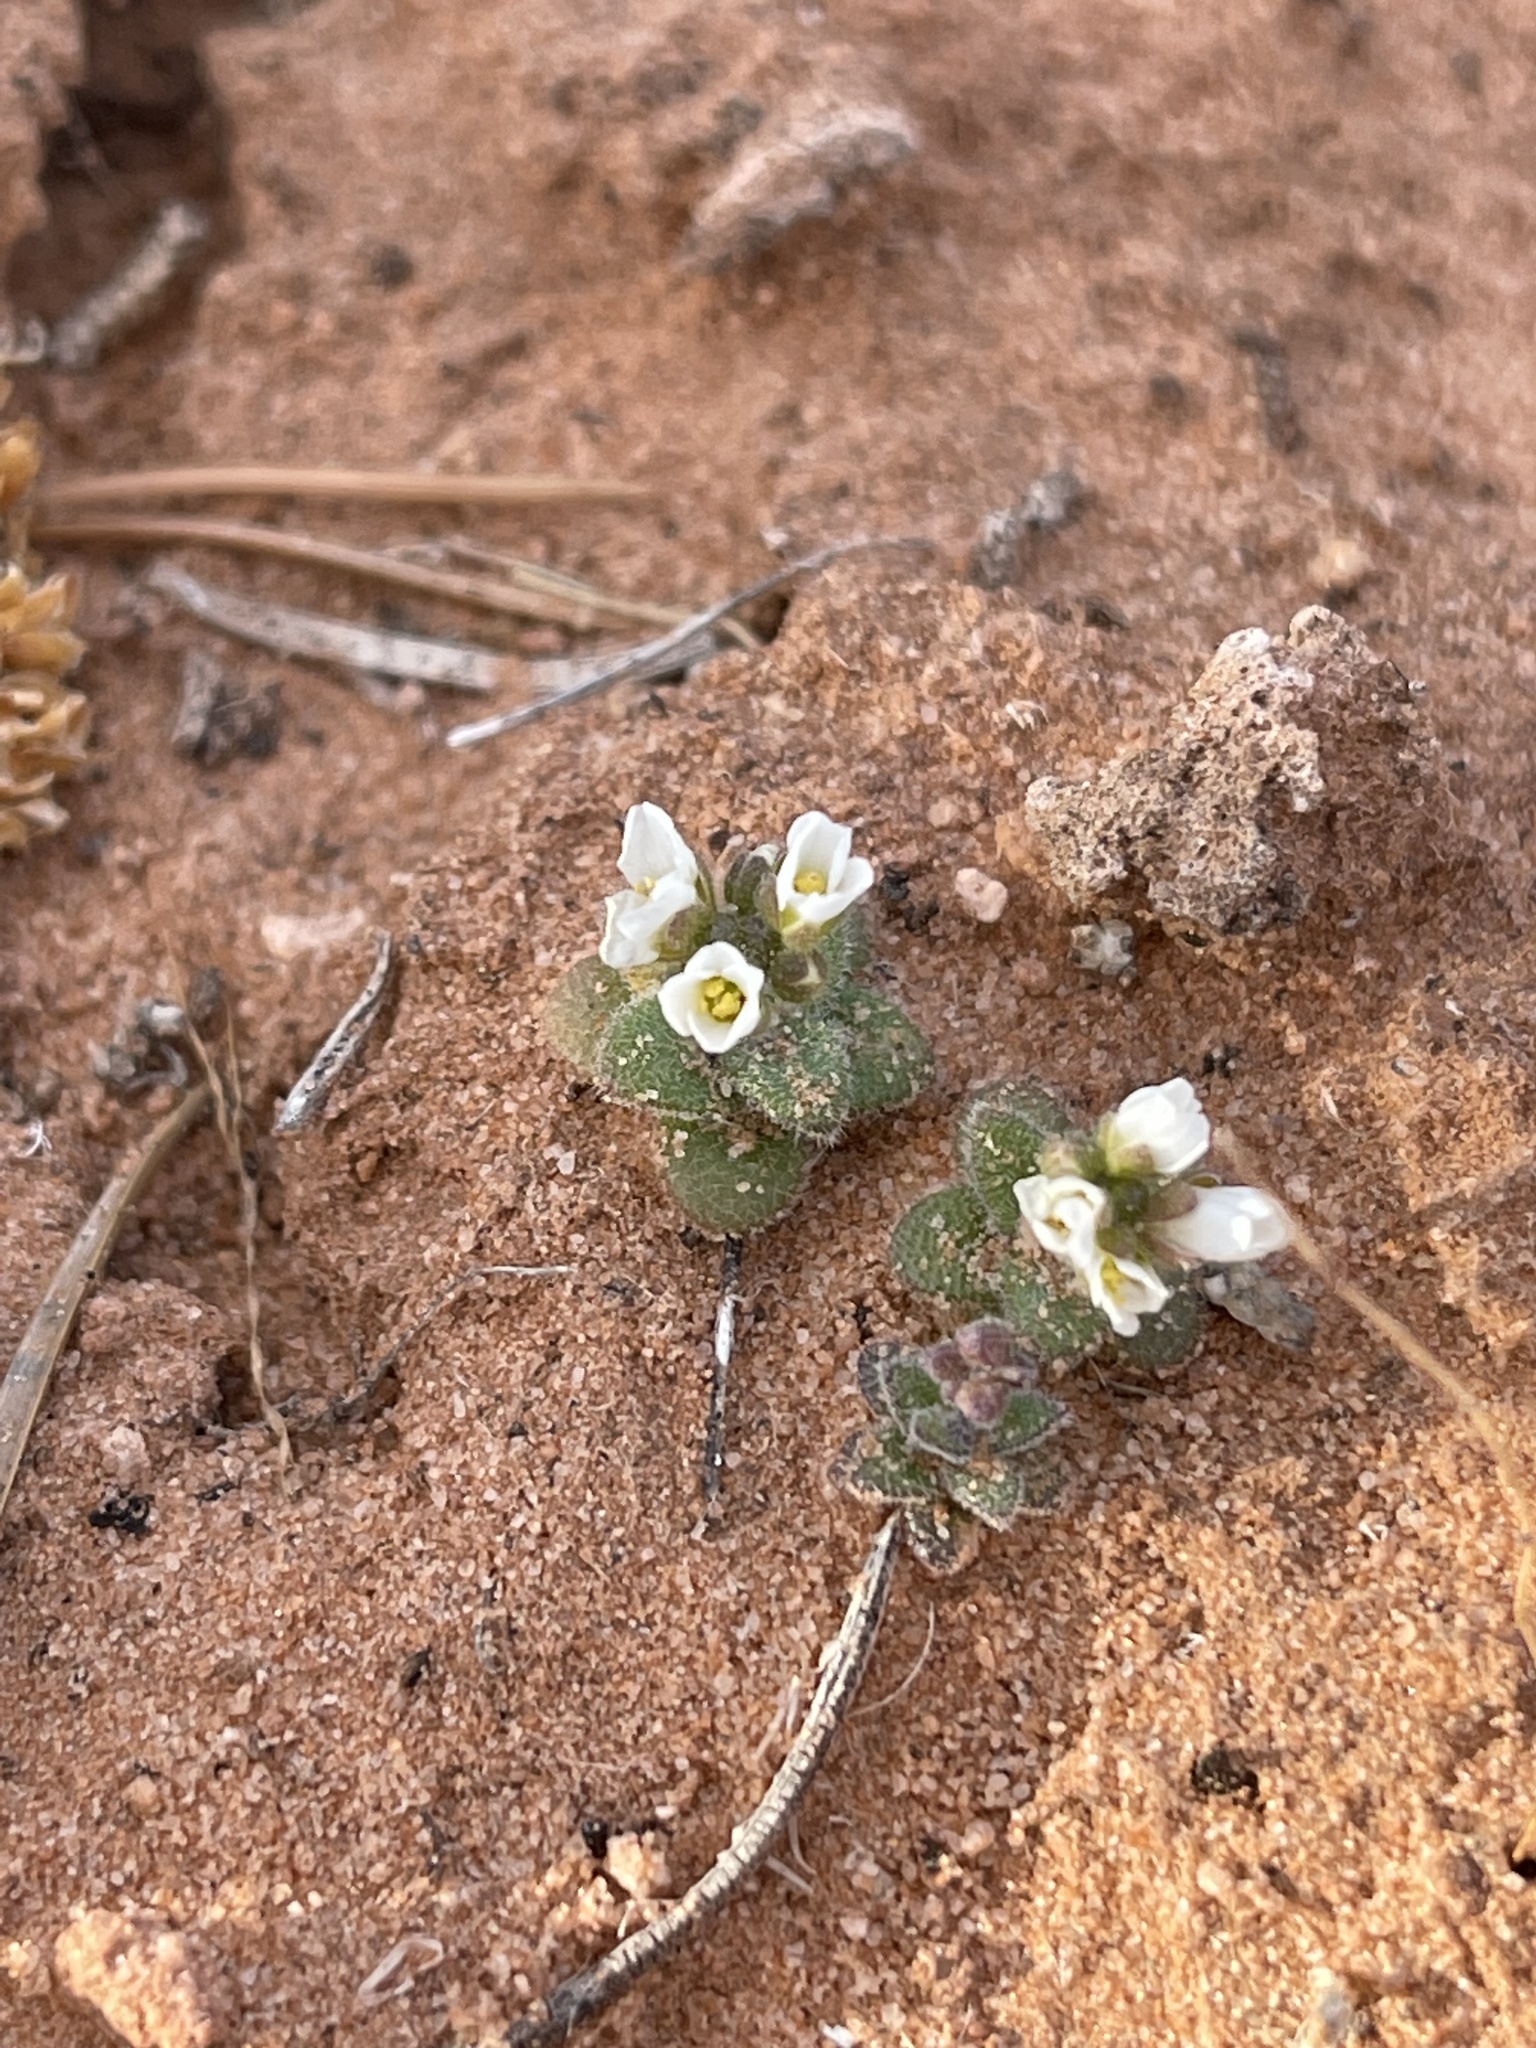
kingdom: Plantae
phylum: Tracheophyta
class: Magnoliopsida
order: Brassicales
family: Brassicaceae
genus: Tomostima
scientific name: Tomostima cuneifolia
